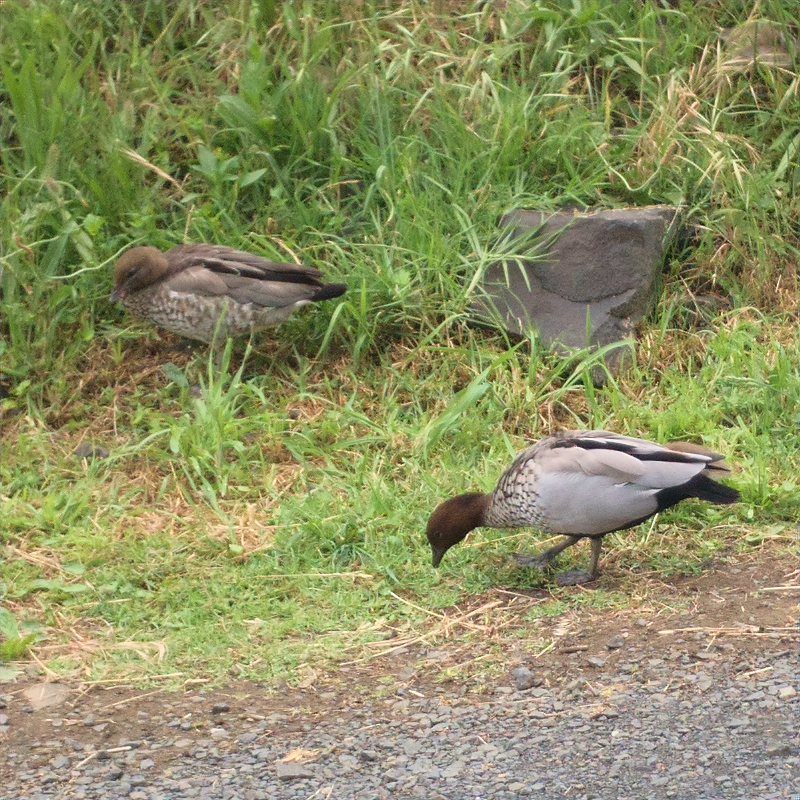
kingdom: Animalia
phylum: Chordata
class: Aves
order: Anseriformes
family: Anatidae
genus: Chenonetta
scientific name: Chenonetta jubata
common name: Maned duck
